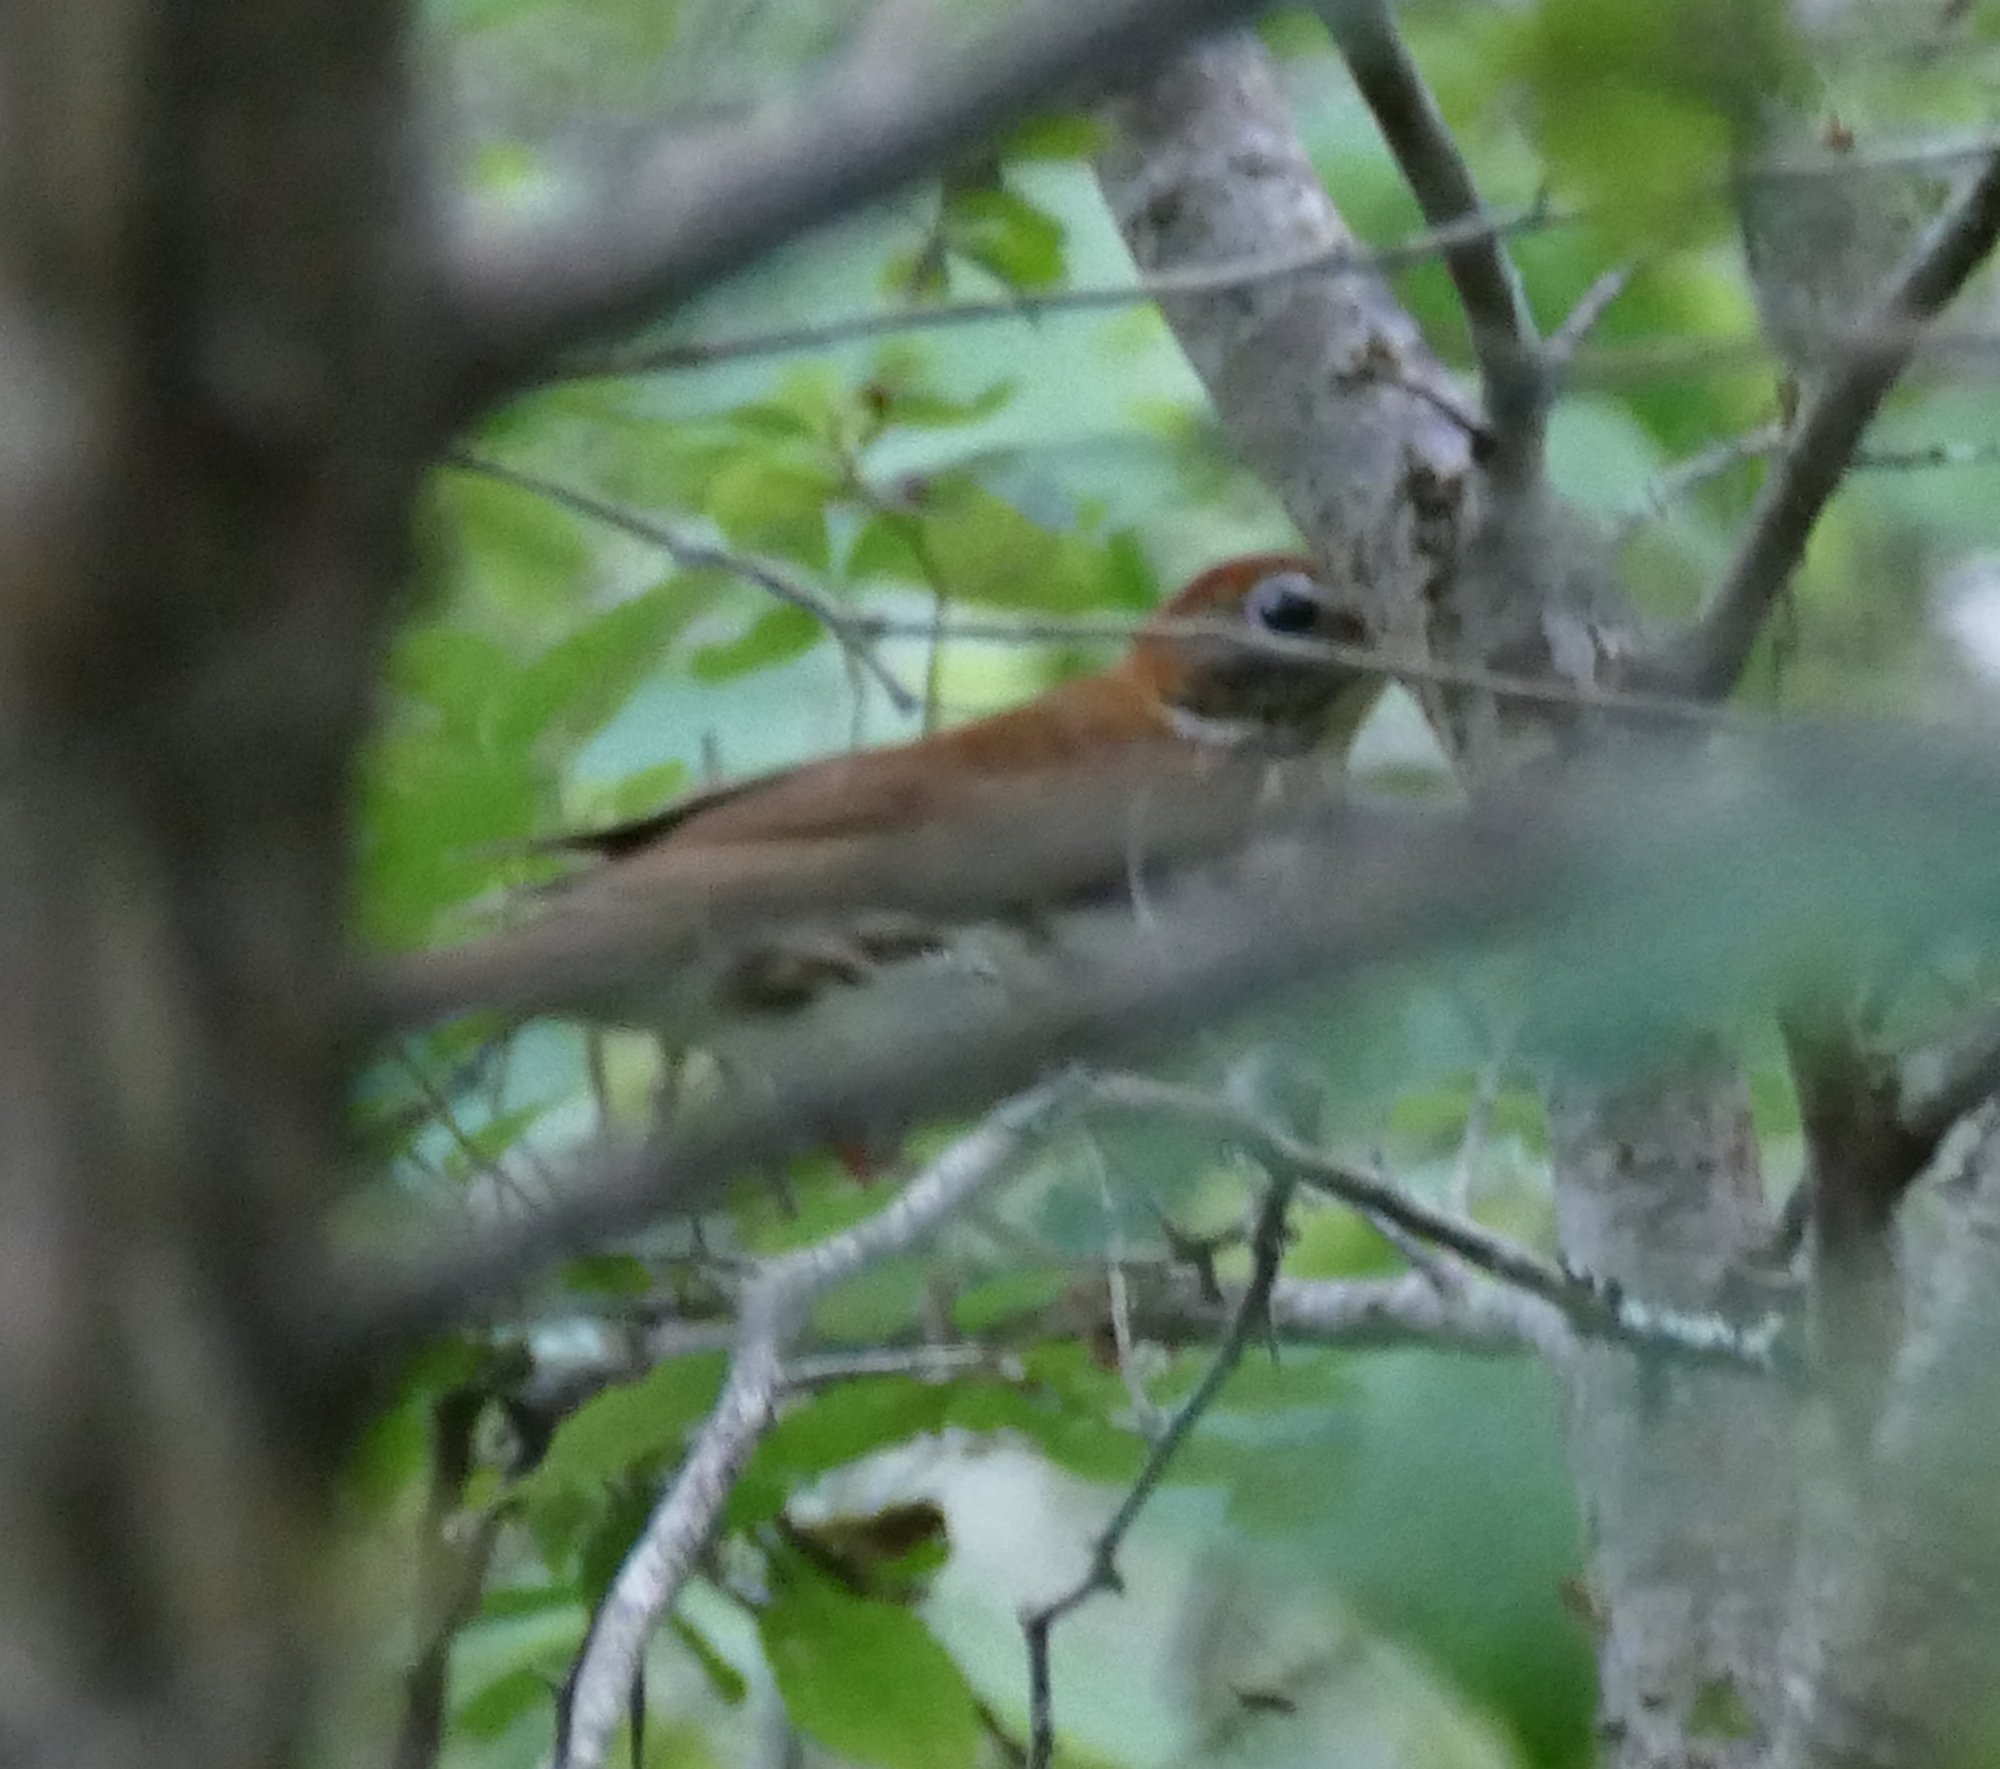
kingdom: Animalia
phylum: Chordata
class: Aves
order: Passeriformes
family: Turdidae
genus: Hylocichla
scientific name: Hylocichla mustelina
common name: Wood thrush
